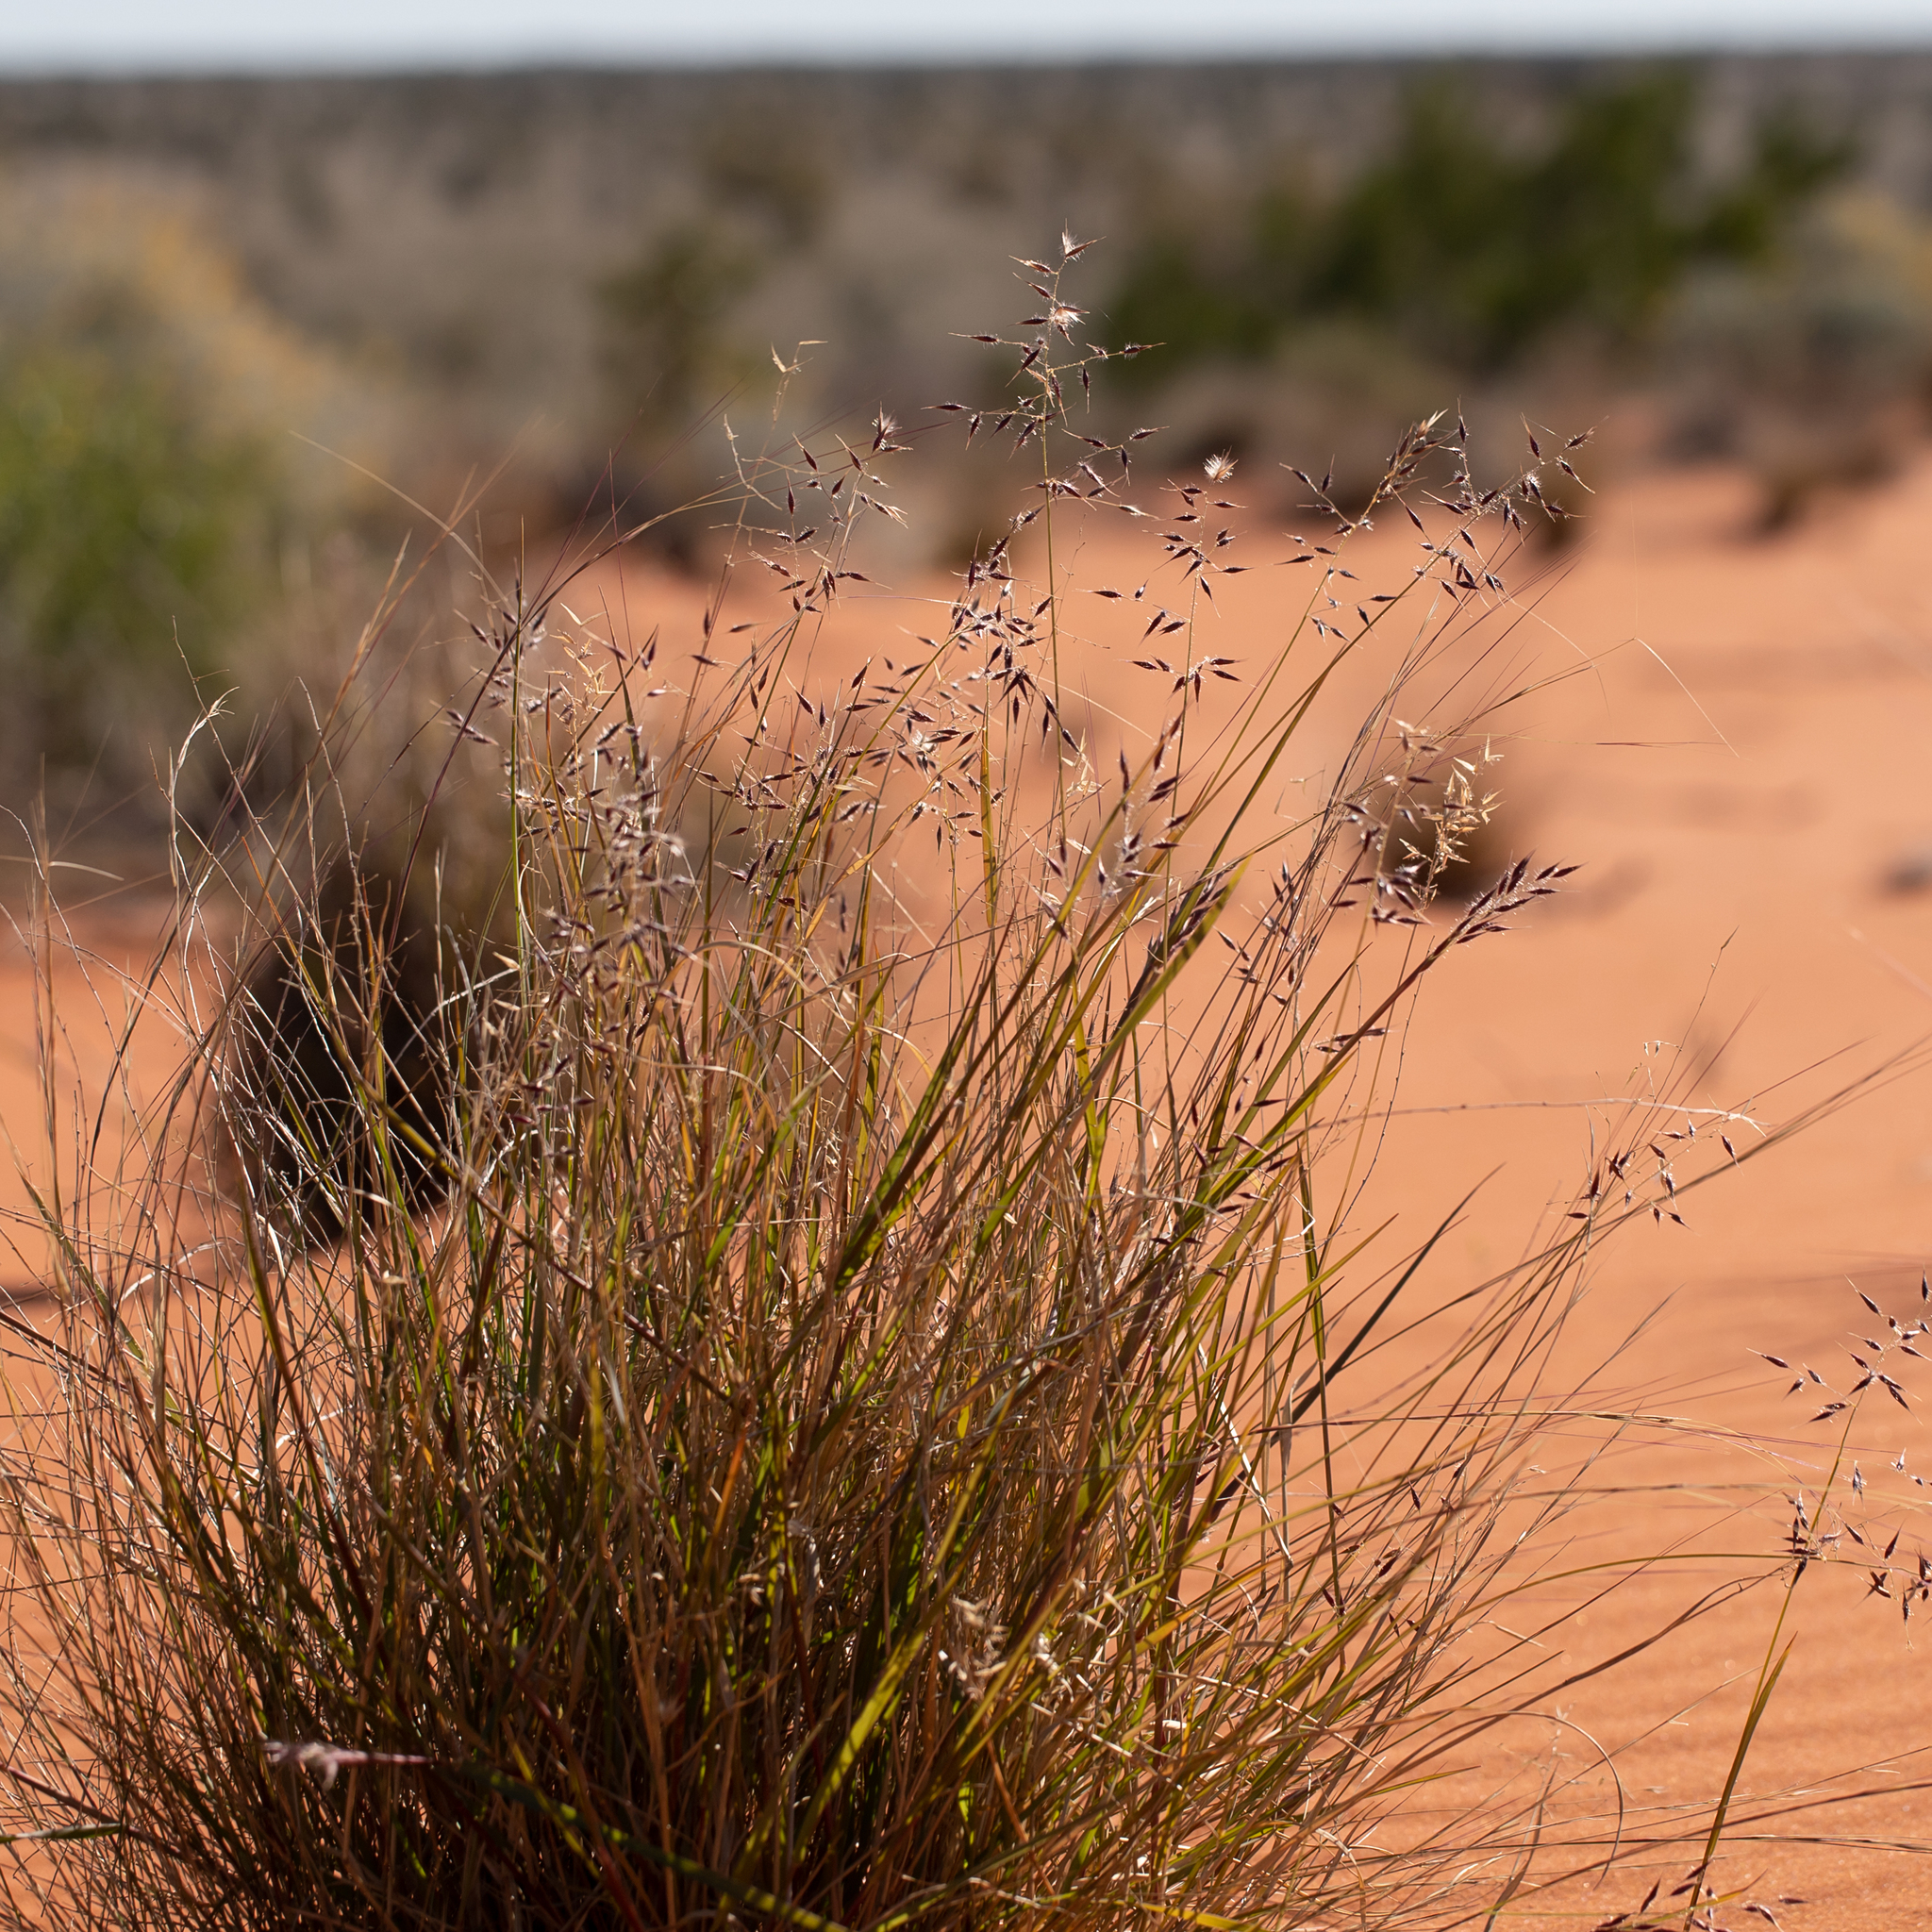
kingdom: Plantae
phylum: Tracheophyta
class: Liliopsida
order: Poales
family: Poaceae
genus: Eriachne
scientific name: Eriachne aristidea
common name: Three-awn wanderrie grass
